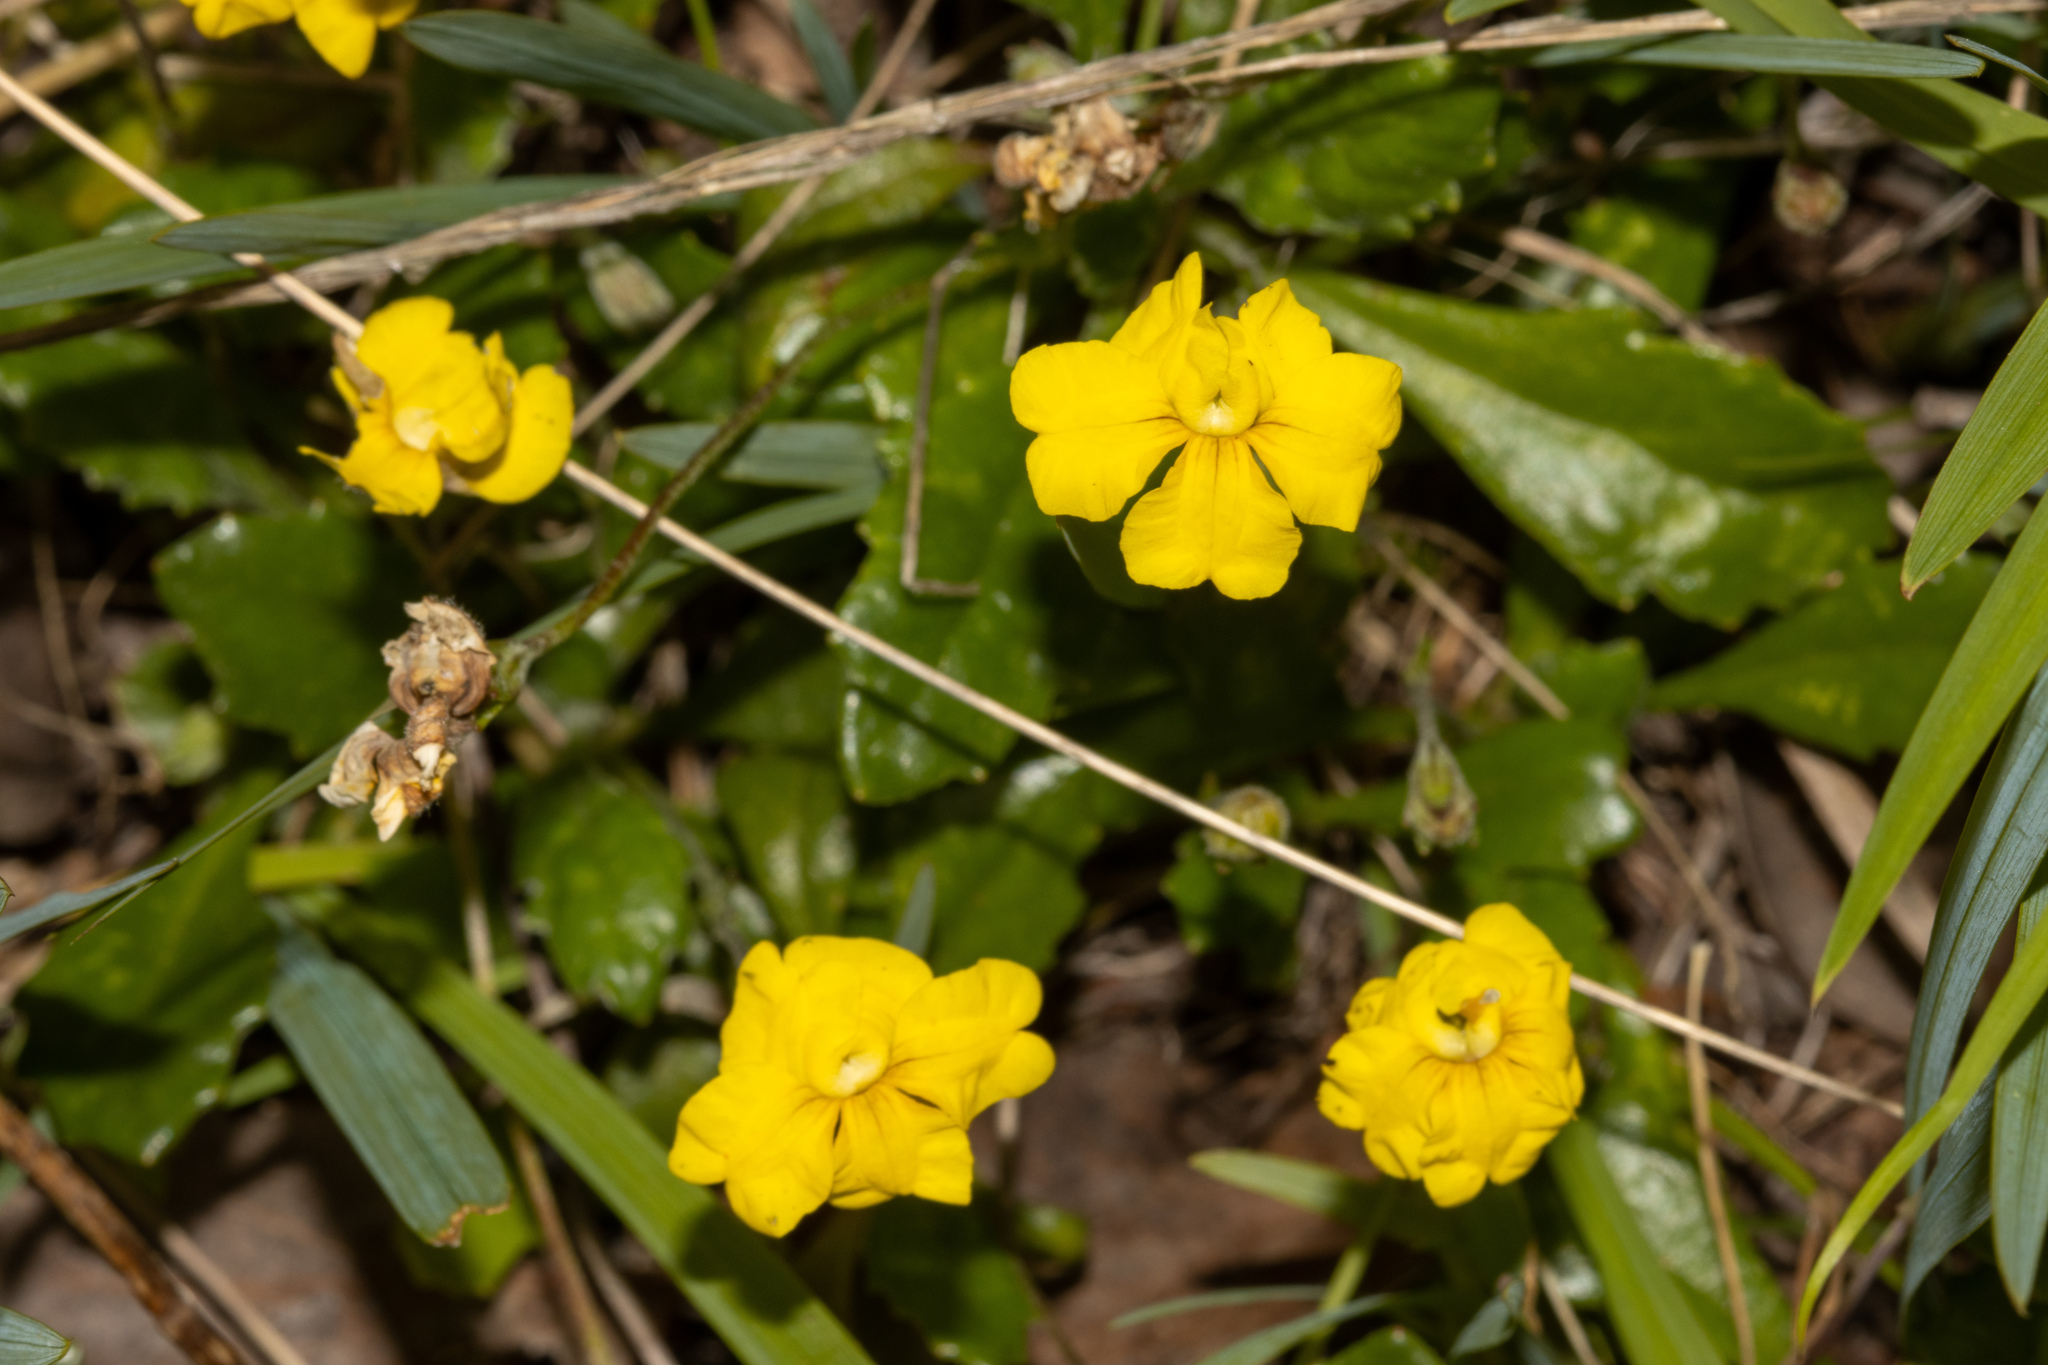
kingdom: Plantae
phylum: Tracheophyta
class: Magnoliopsida
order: Asterales
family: Goodeniaceae
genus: Goodenia
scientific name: Goodenia blackiana
